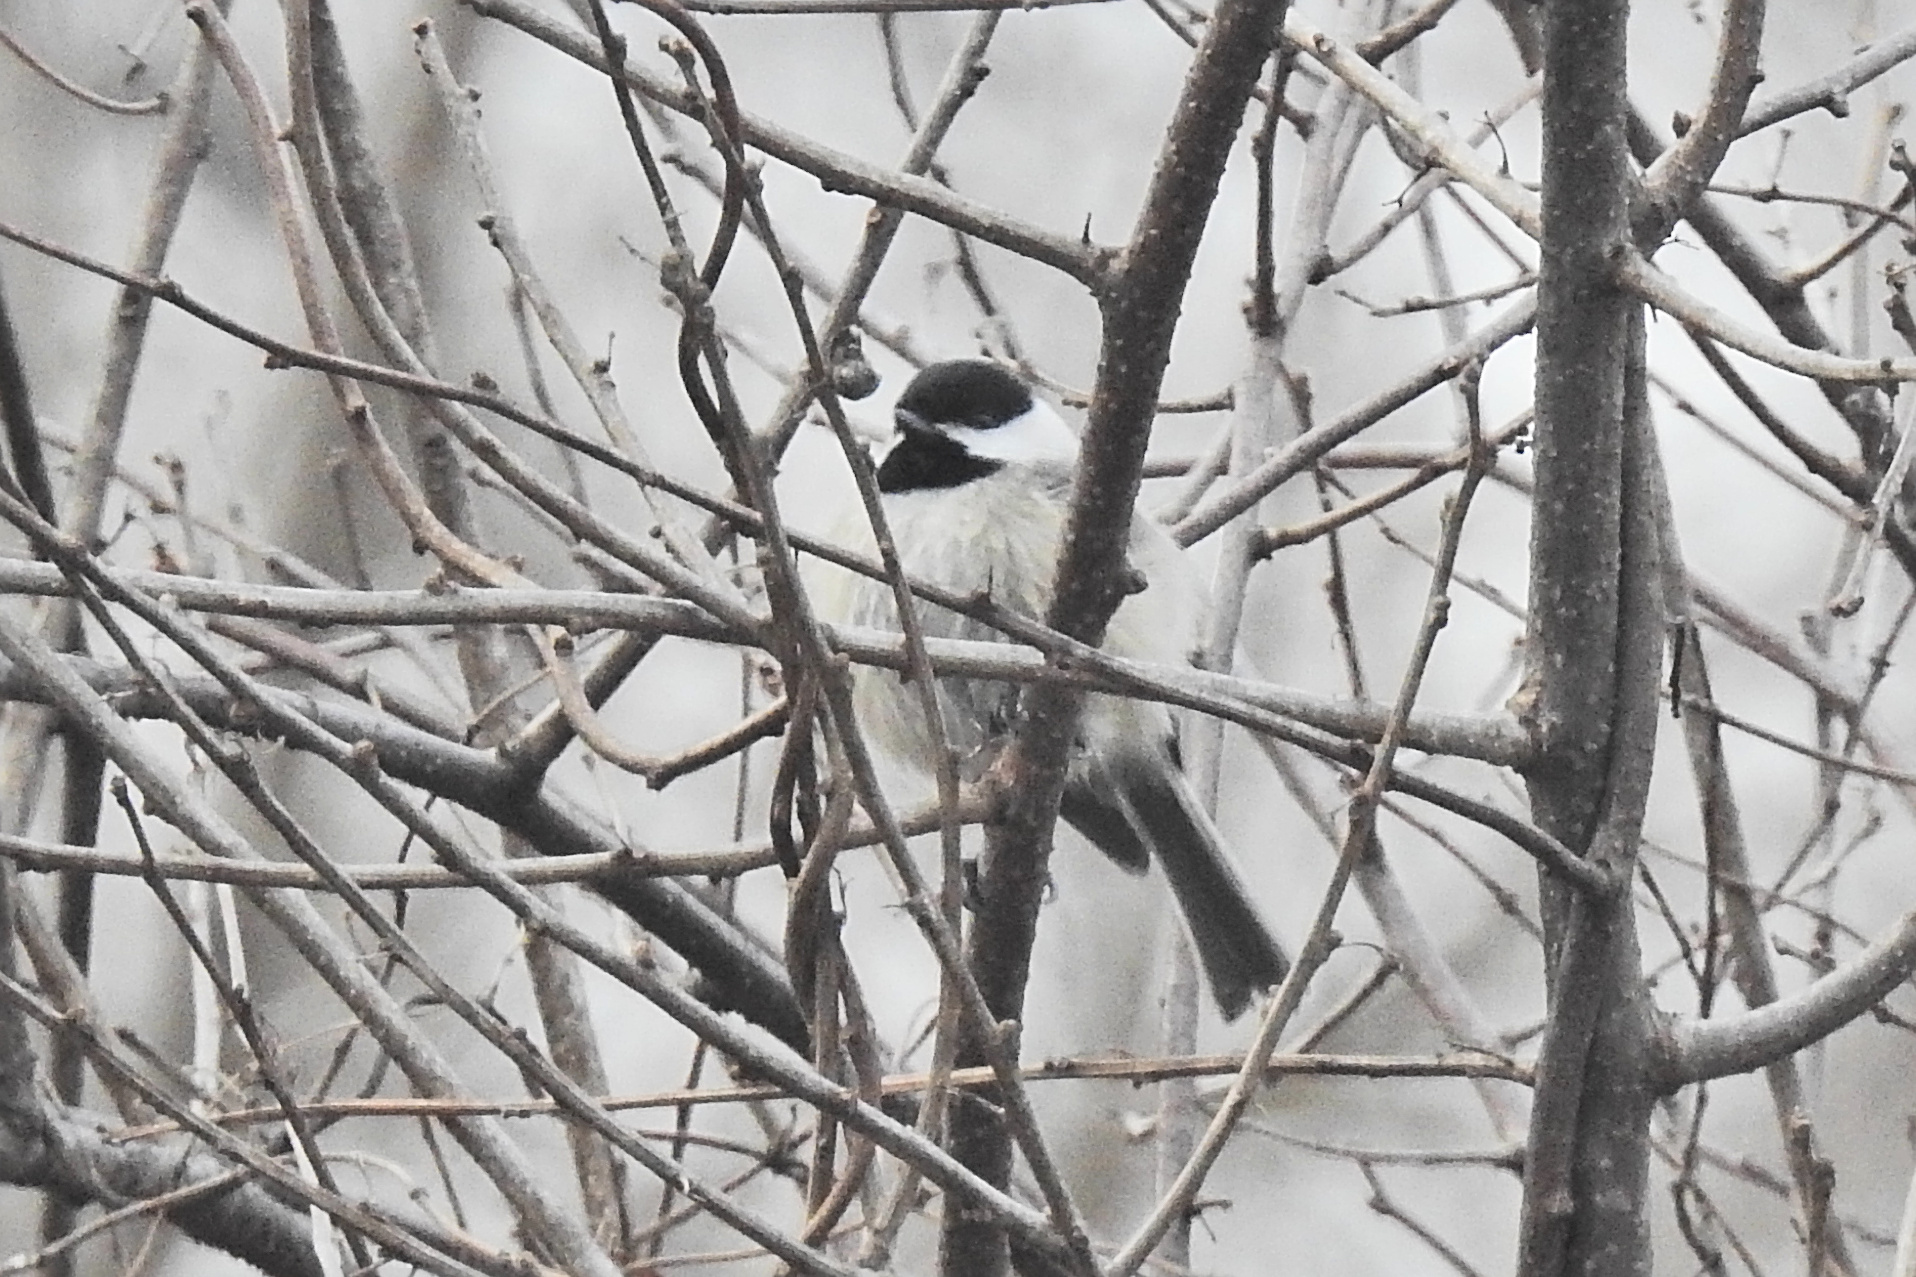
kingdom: Animalia
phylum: Chordata
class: Aves
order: Passeriformes
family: Paridae
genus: Poecile
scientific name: Poecile carolinensis
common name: Carolina chickadee
